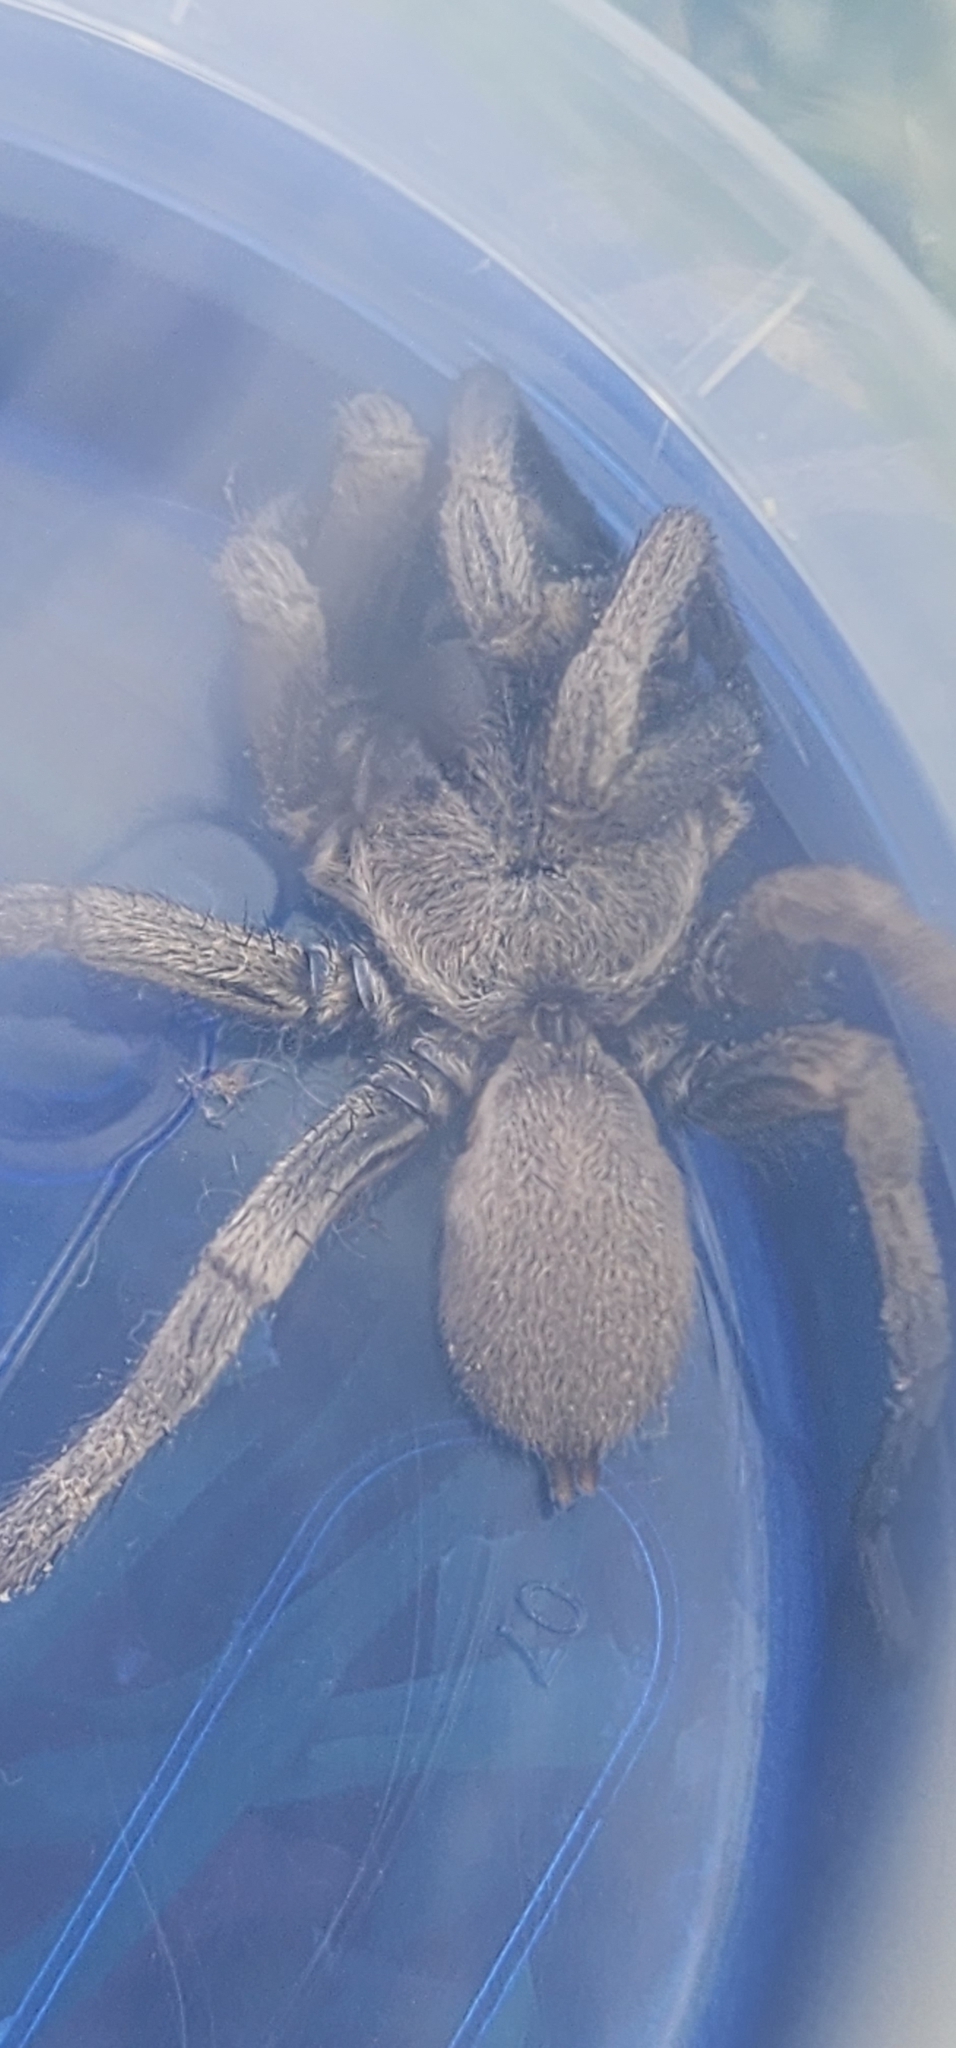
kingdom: Animalia
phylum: Arthropoda
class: Arachnida
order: Araneae
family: Nemesiidae
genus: Calisoga
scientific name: Calisoga longitarsis
